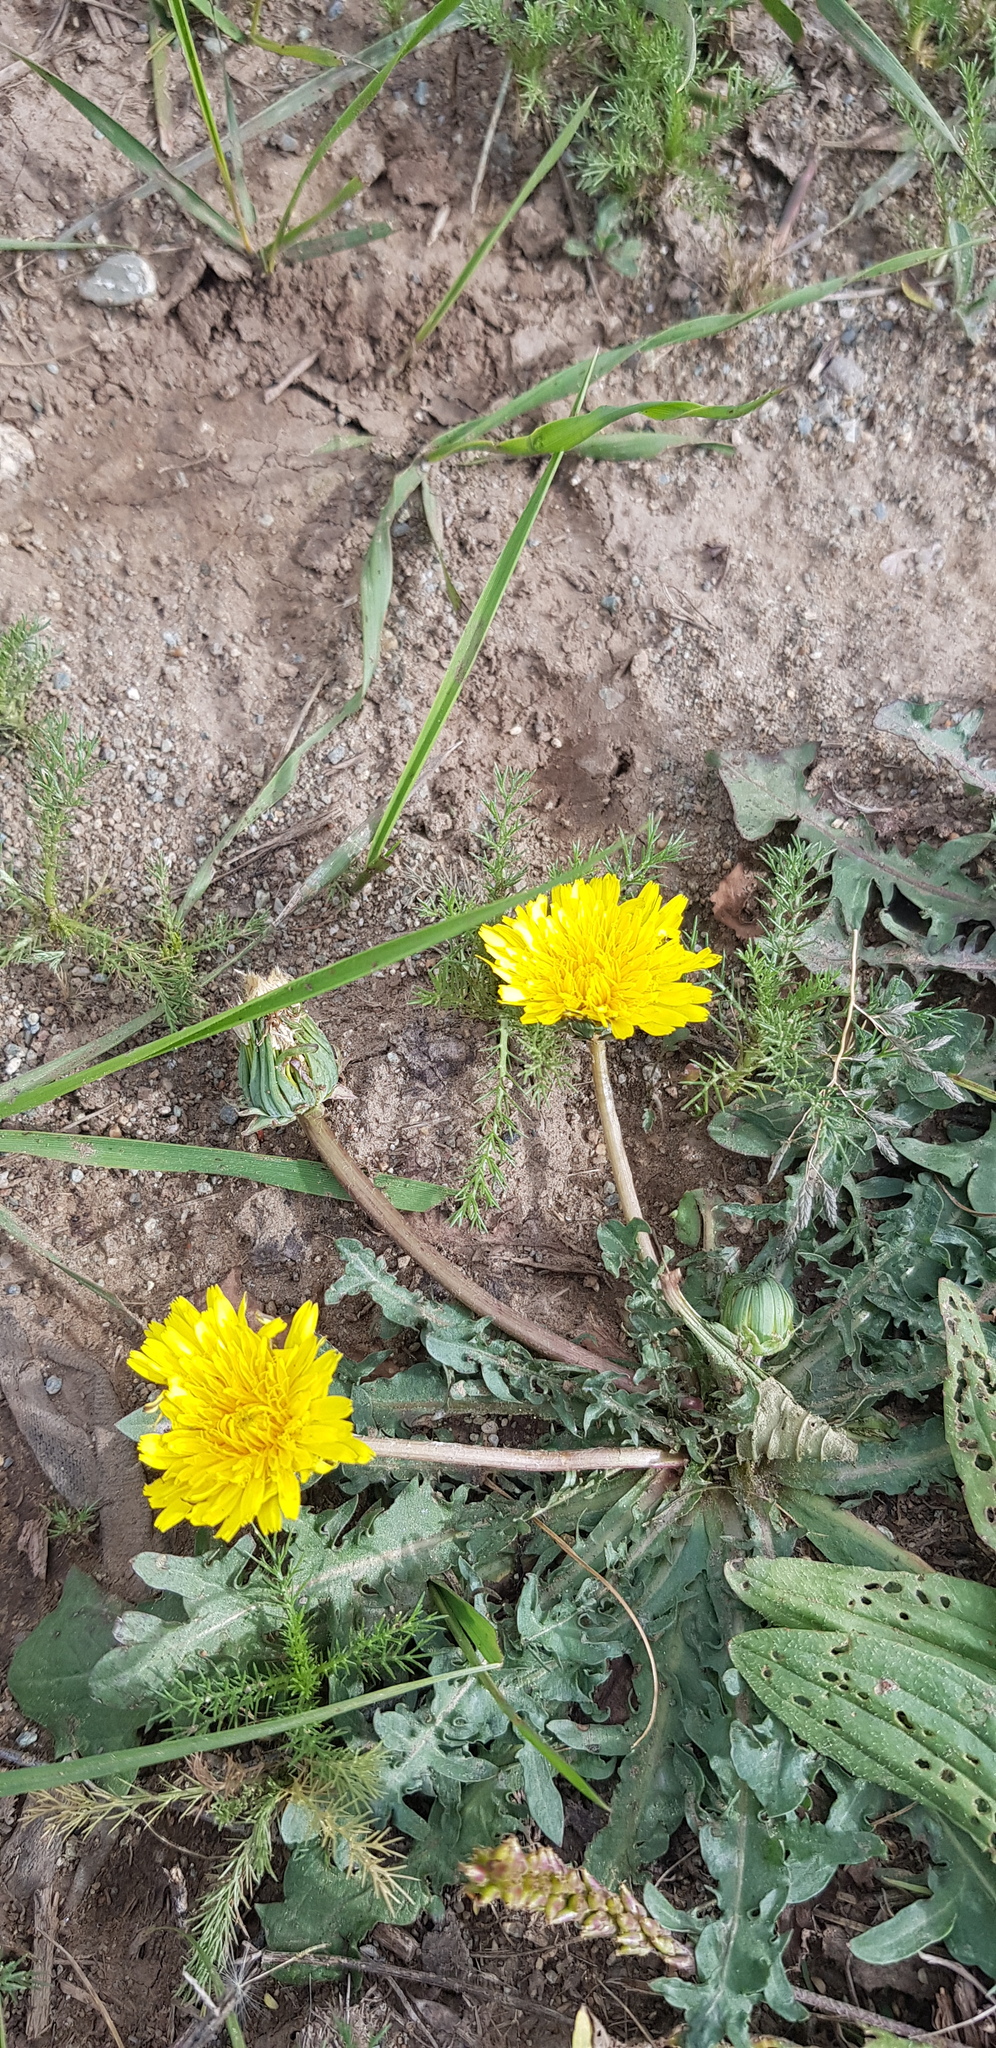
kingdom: Plantae
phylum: Tracheophyta
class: Magnoliopsida
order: Asterales
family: Asteraceae
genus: Taraxacum
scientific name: Taraxacum officinale
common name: Common dandelion
